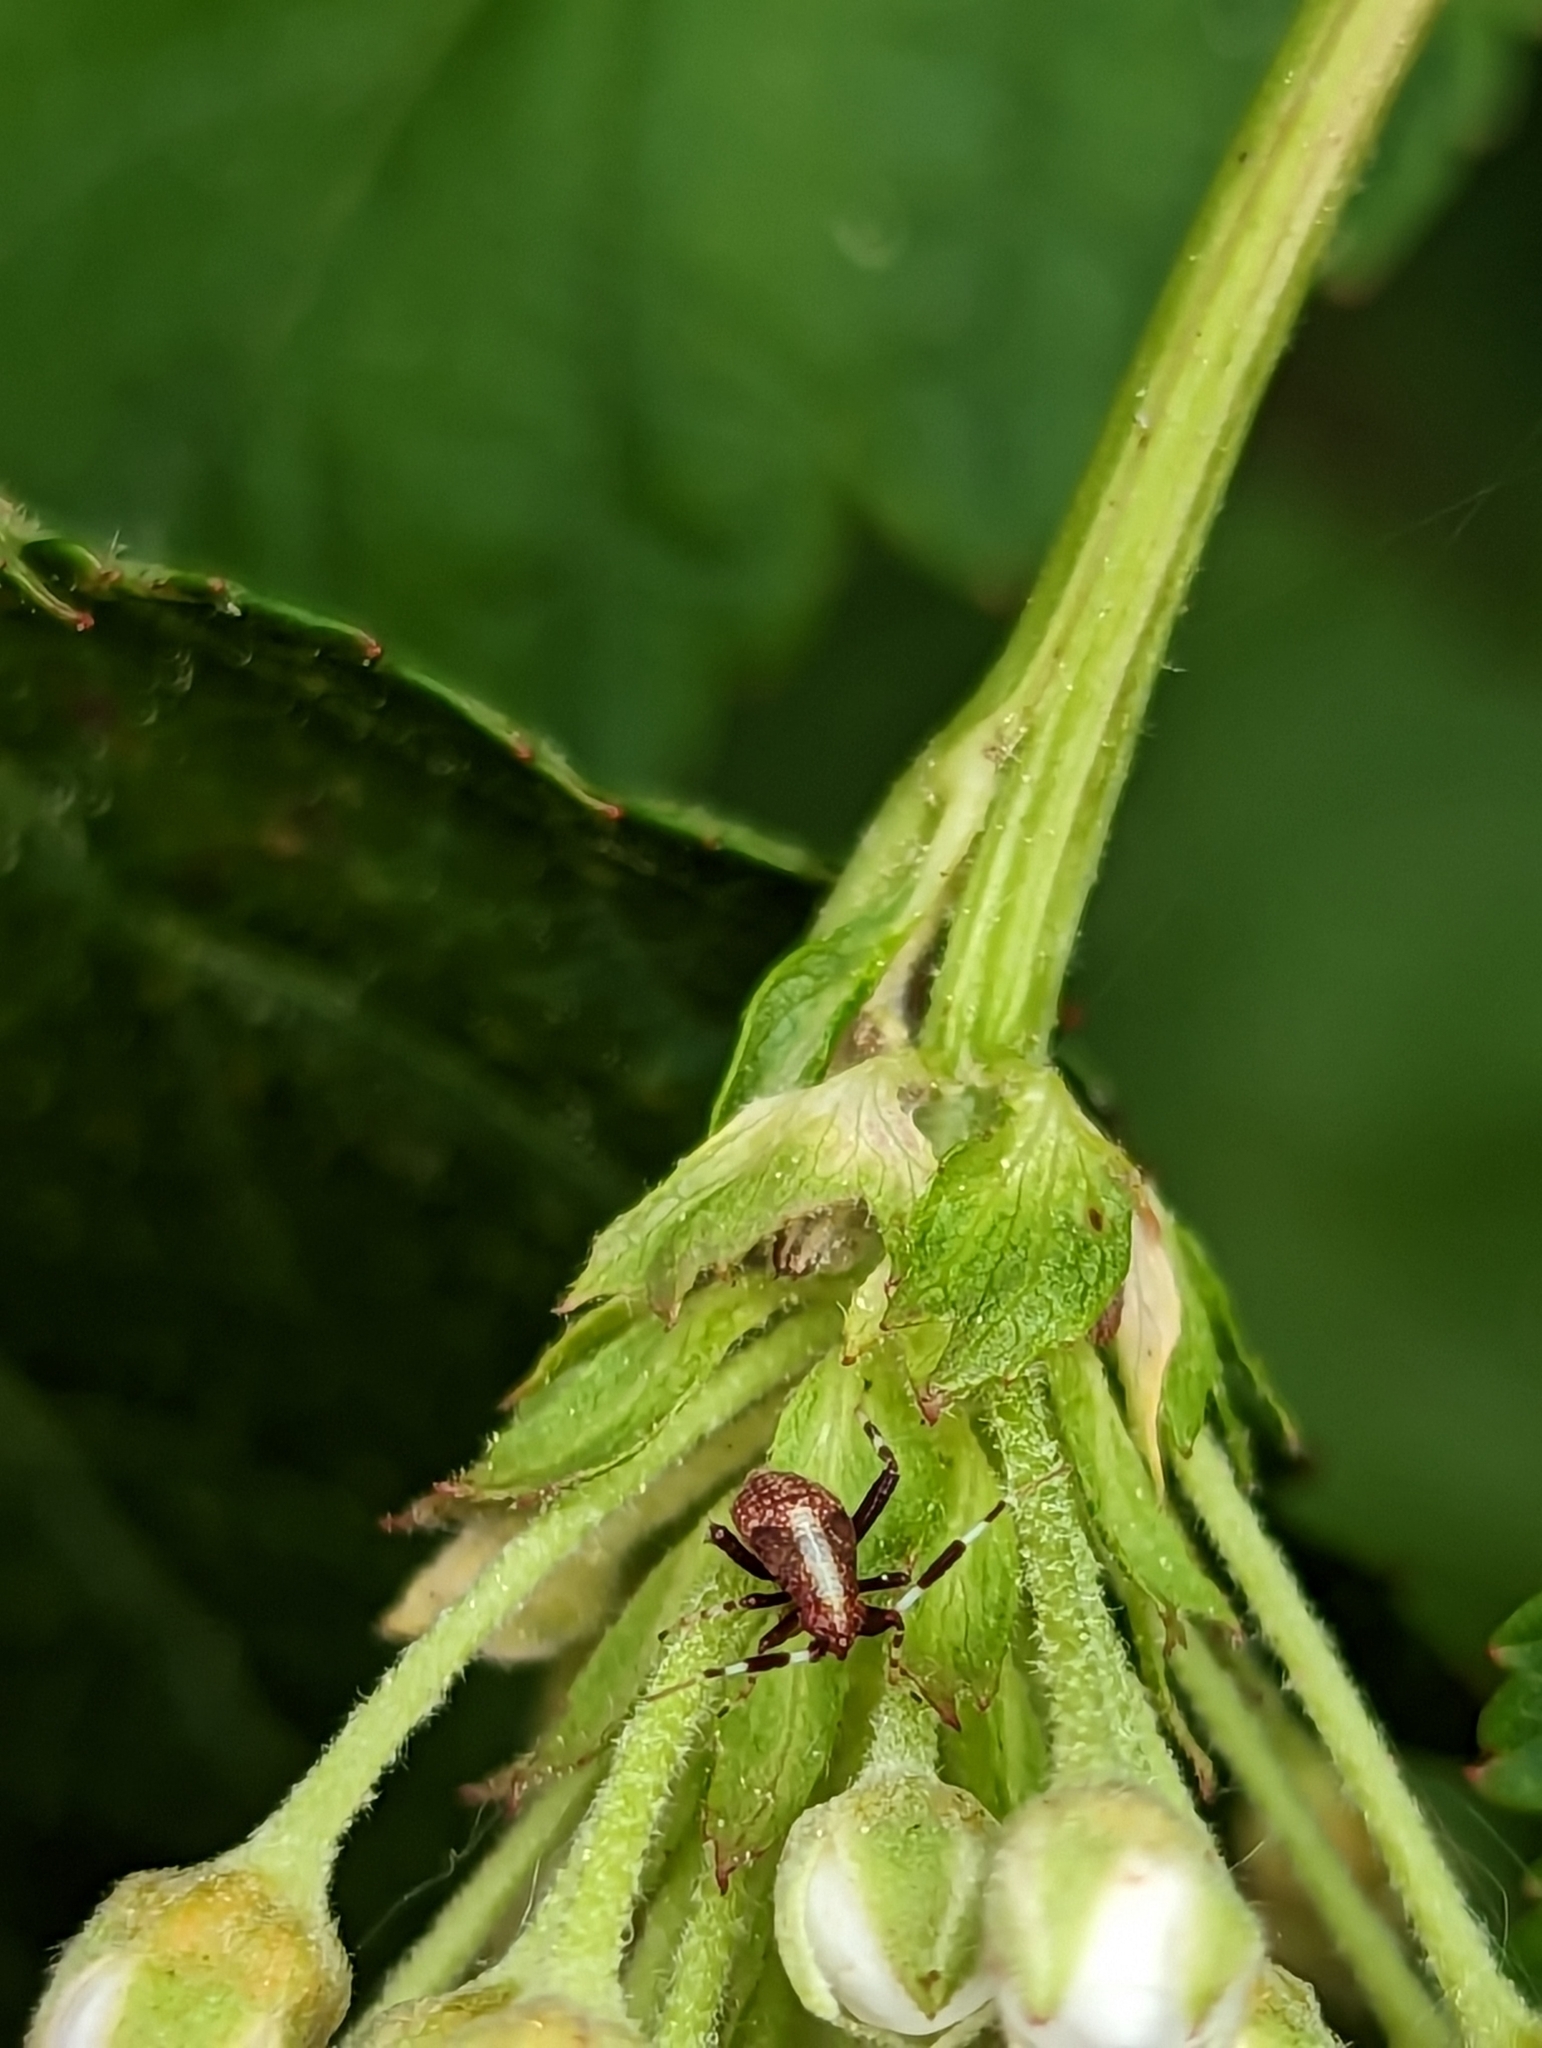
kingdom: Animalia
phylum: Arthropoda
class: Insecta
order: Hemiptera
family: Miridae
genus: Neurocolpus
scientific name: Neurocolpus nubilus
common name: Clouded plant bug
